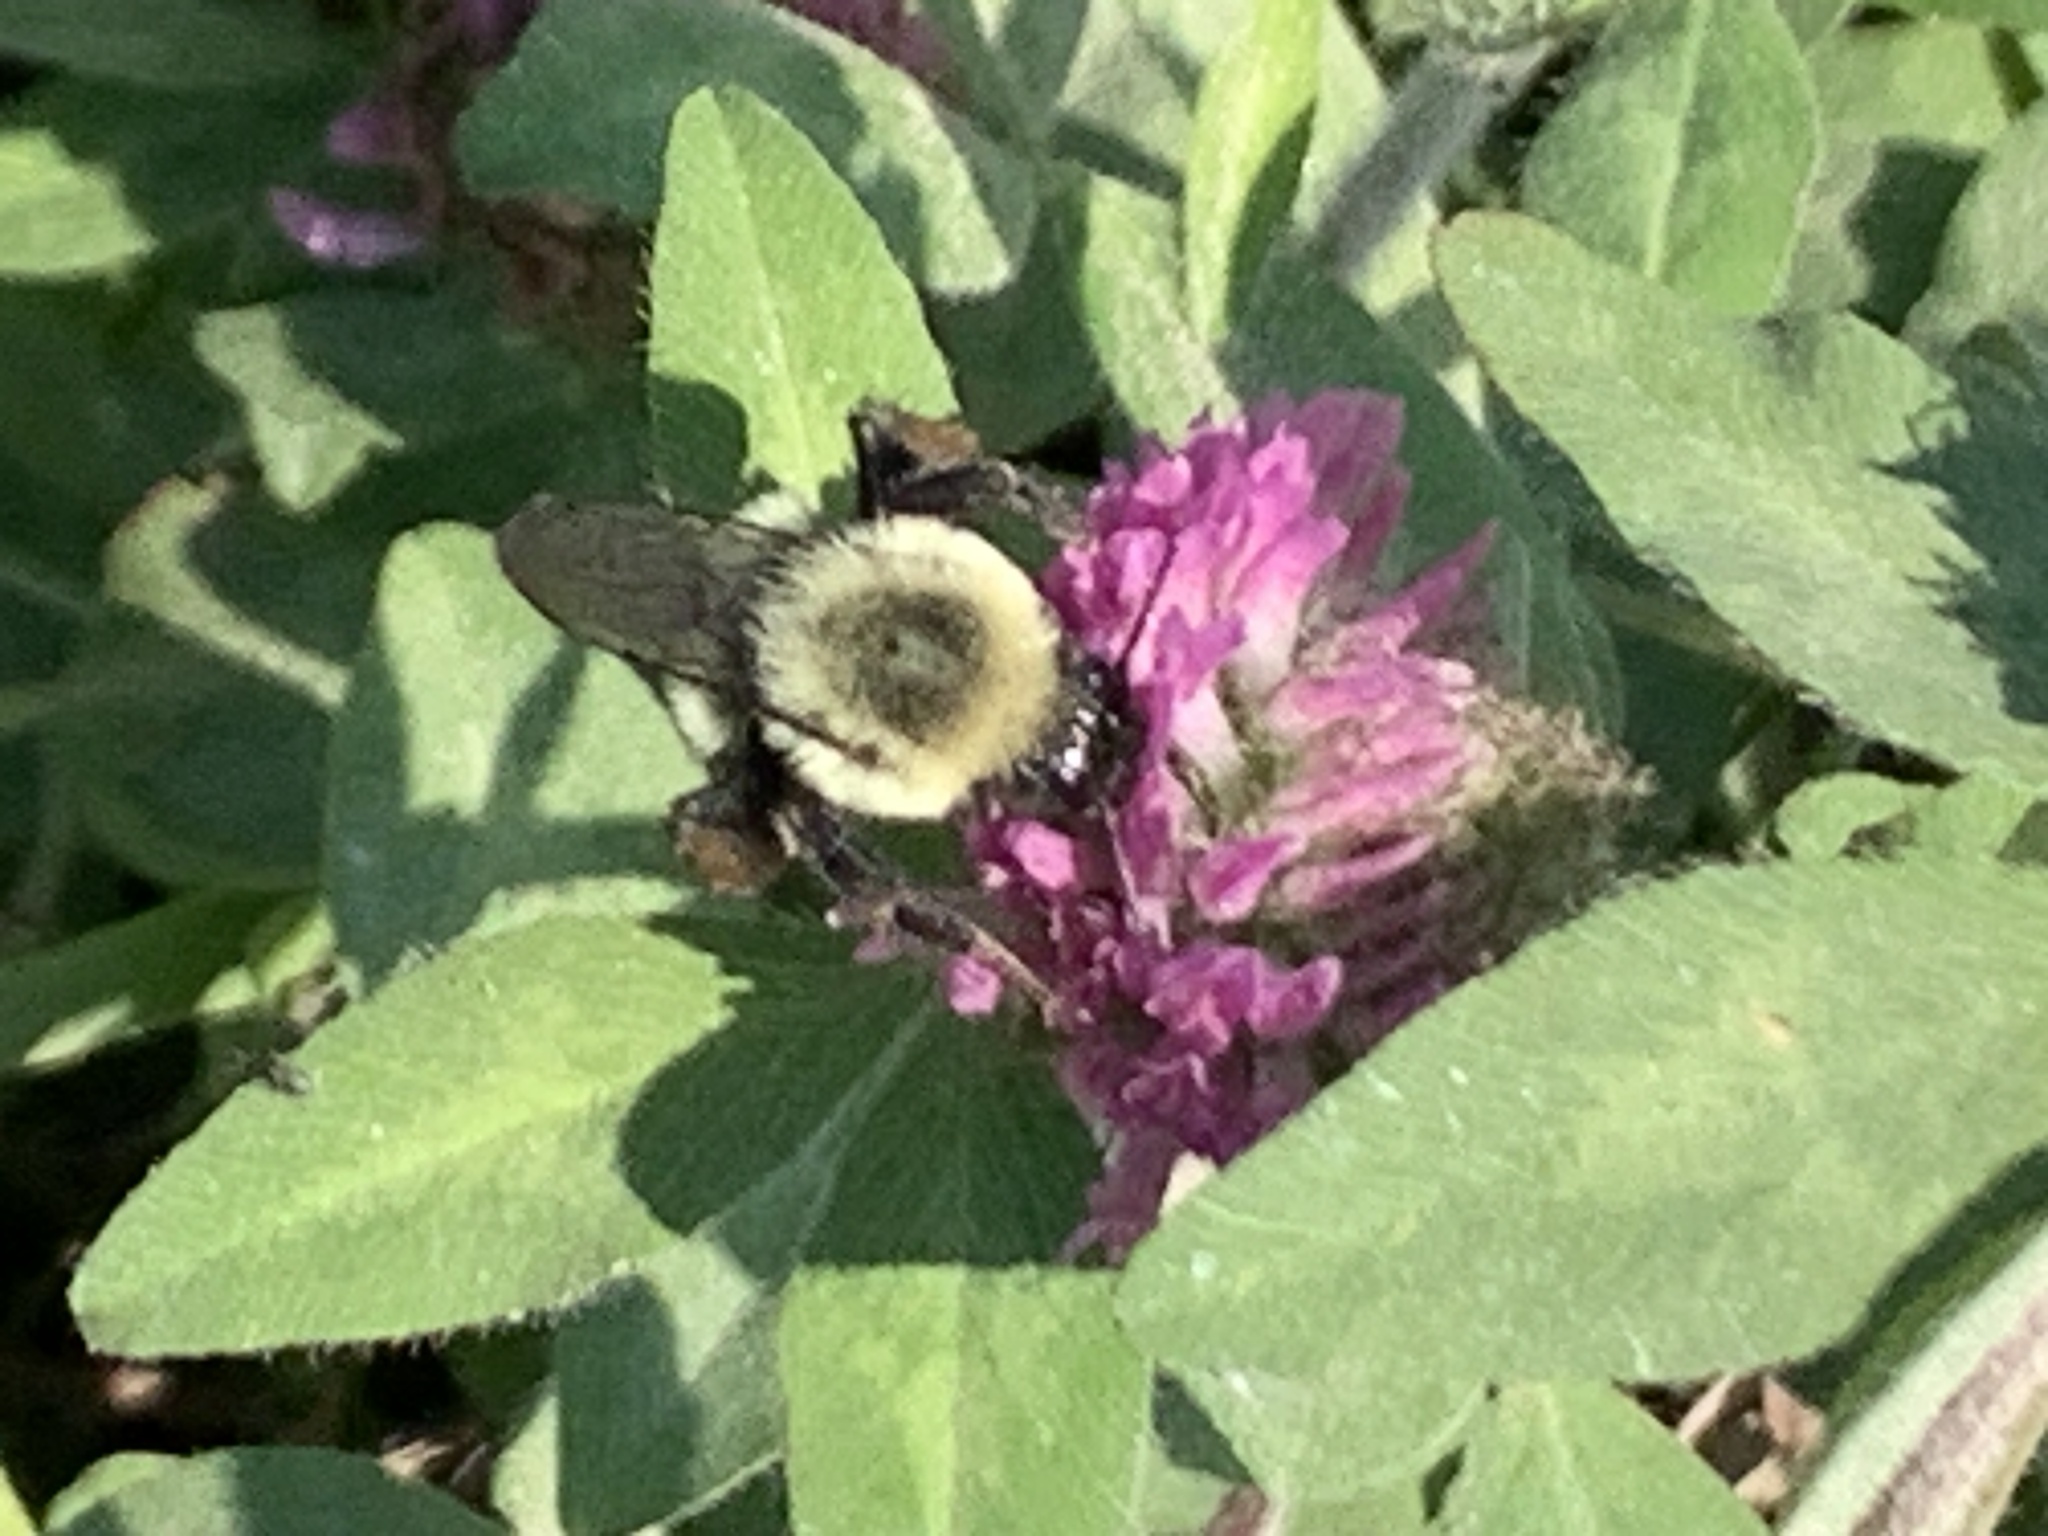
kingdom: Animalia
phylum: Arthropoda
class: Insecta
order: Hymenoptera
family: Apidae
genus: Bombus
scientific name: Bombus impatiens
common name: Common eastern bumble bee
